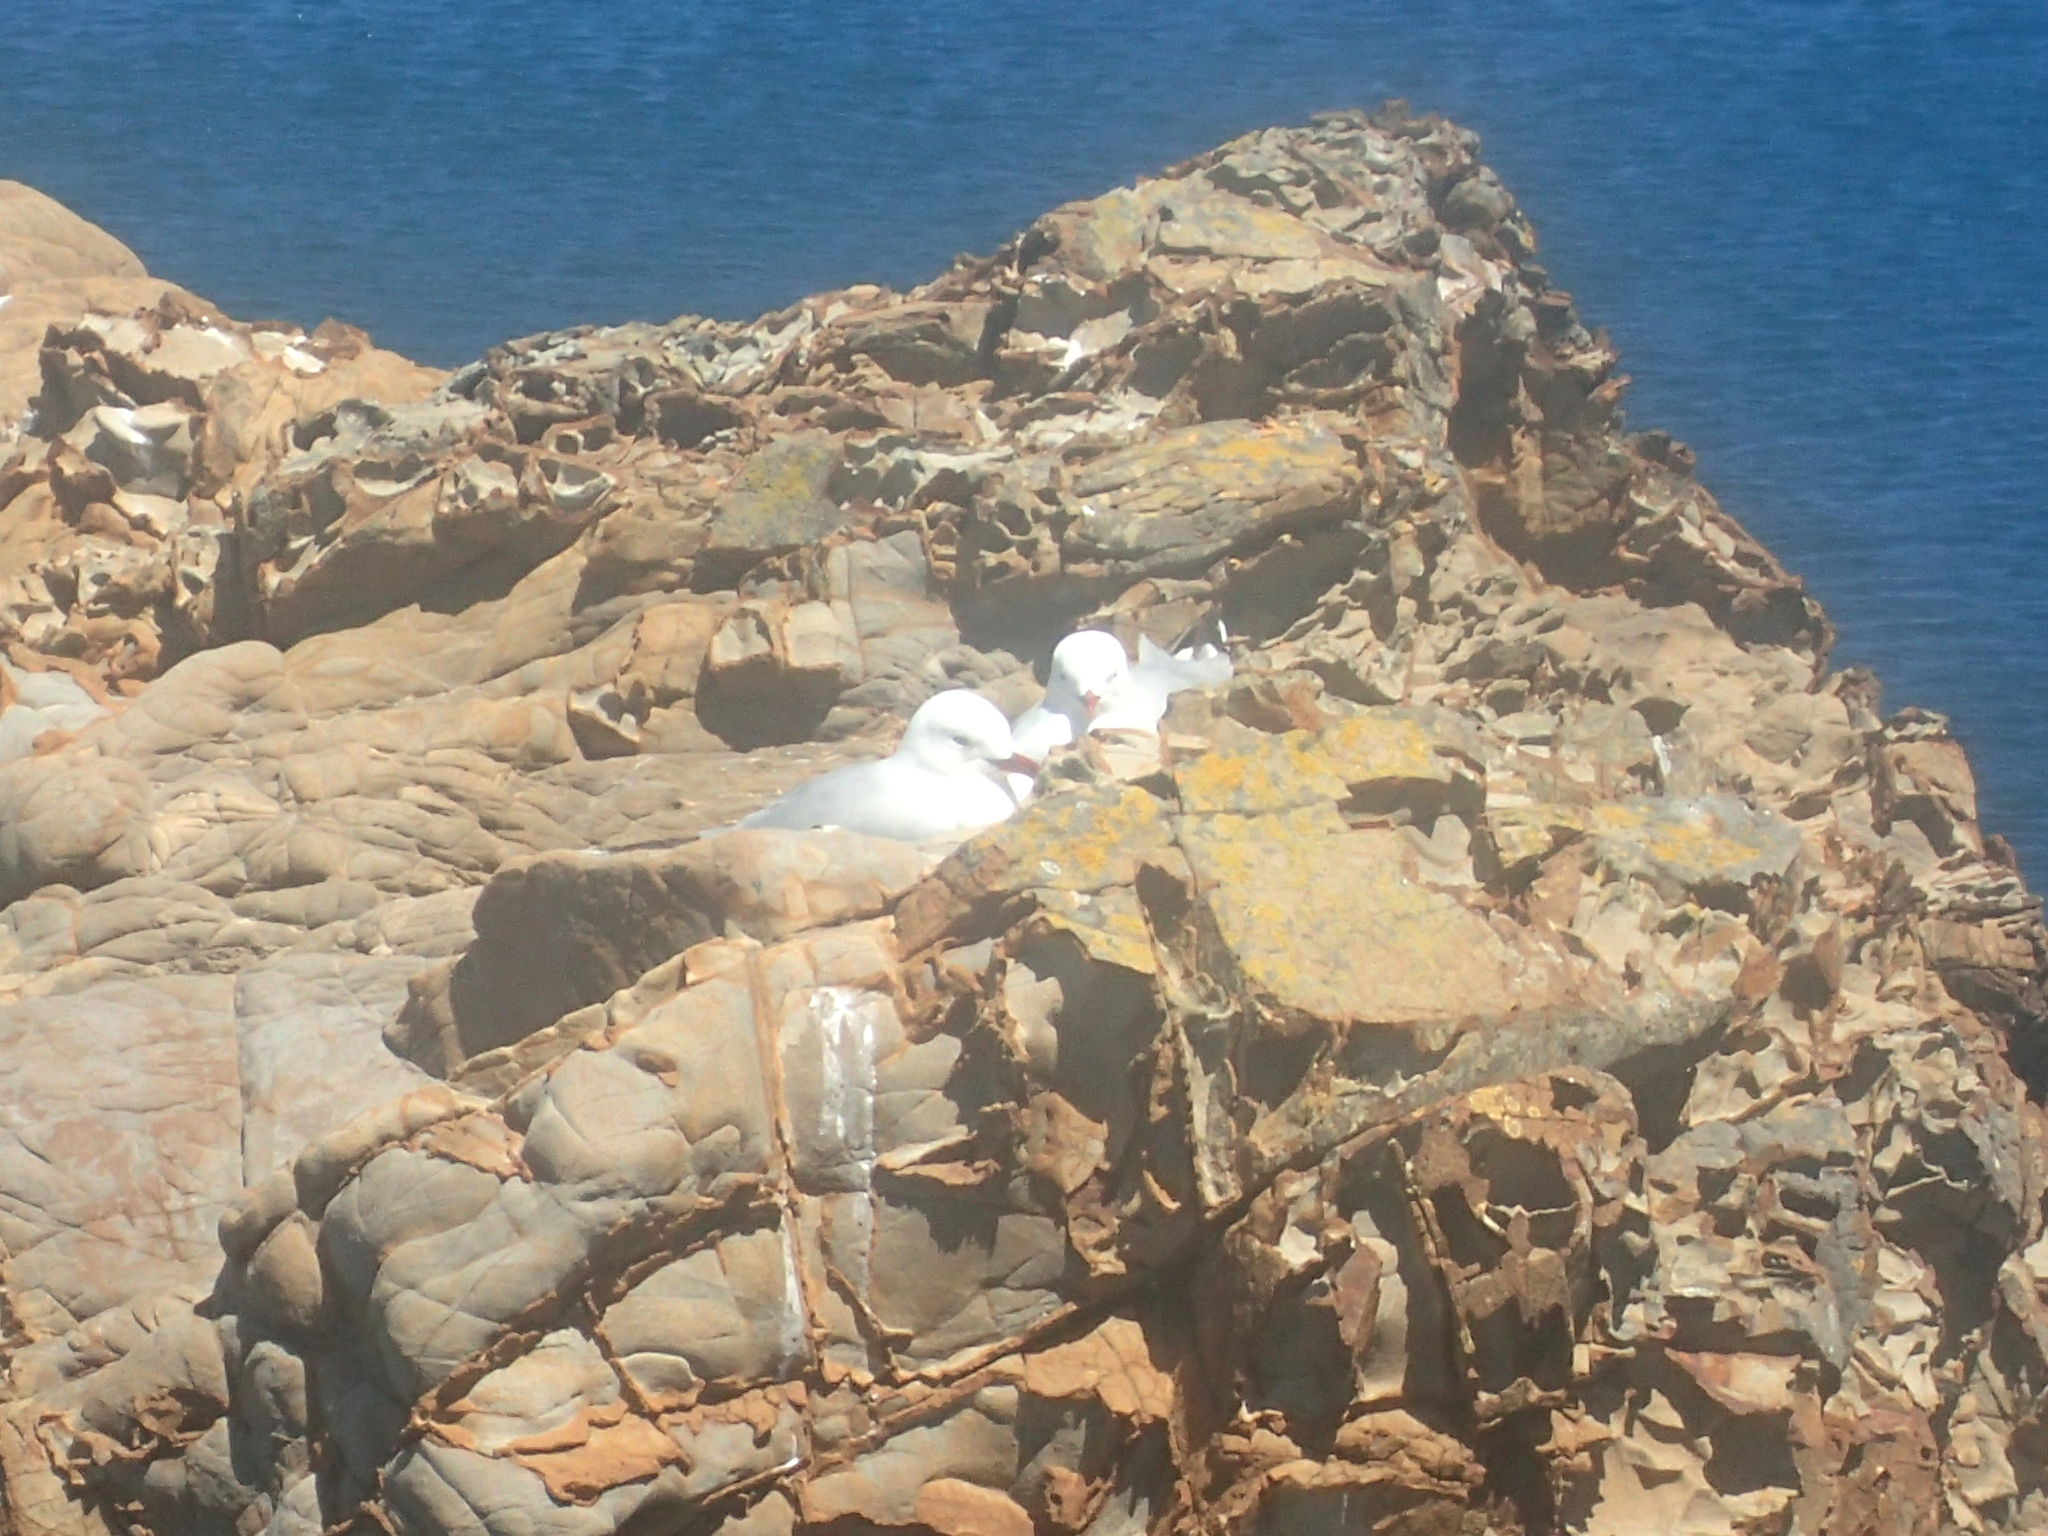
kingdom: Animalia
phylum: Chordata
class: Aves
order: Charadriiformes
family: Laridae
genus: Chroicocephalus
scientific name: Chroicocephalus novaehollandiae
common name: Silver gull
